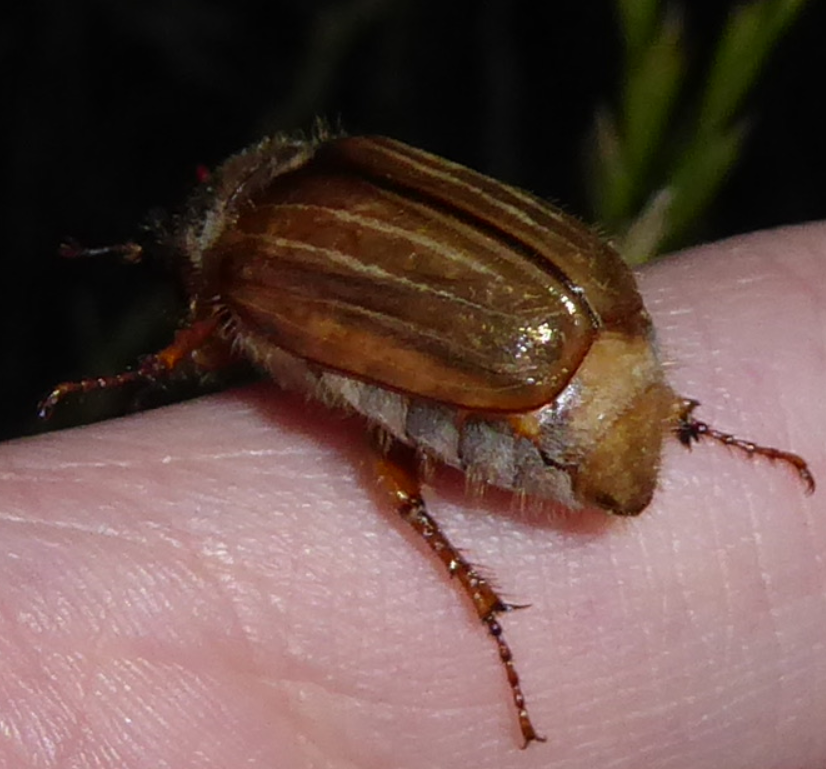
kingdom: Animalia
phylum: Arthropoda
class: Insecta
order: Coleoptera
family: Scarabaeidae
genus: Amphimallon
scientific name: Amphimallon solstitiale
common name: Summer chafer
